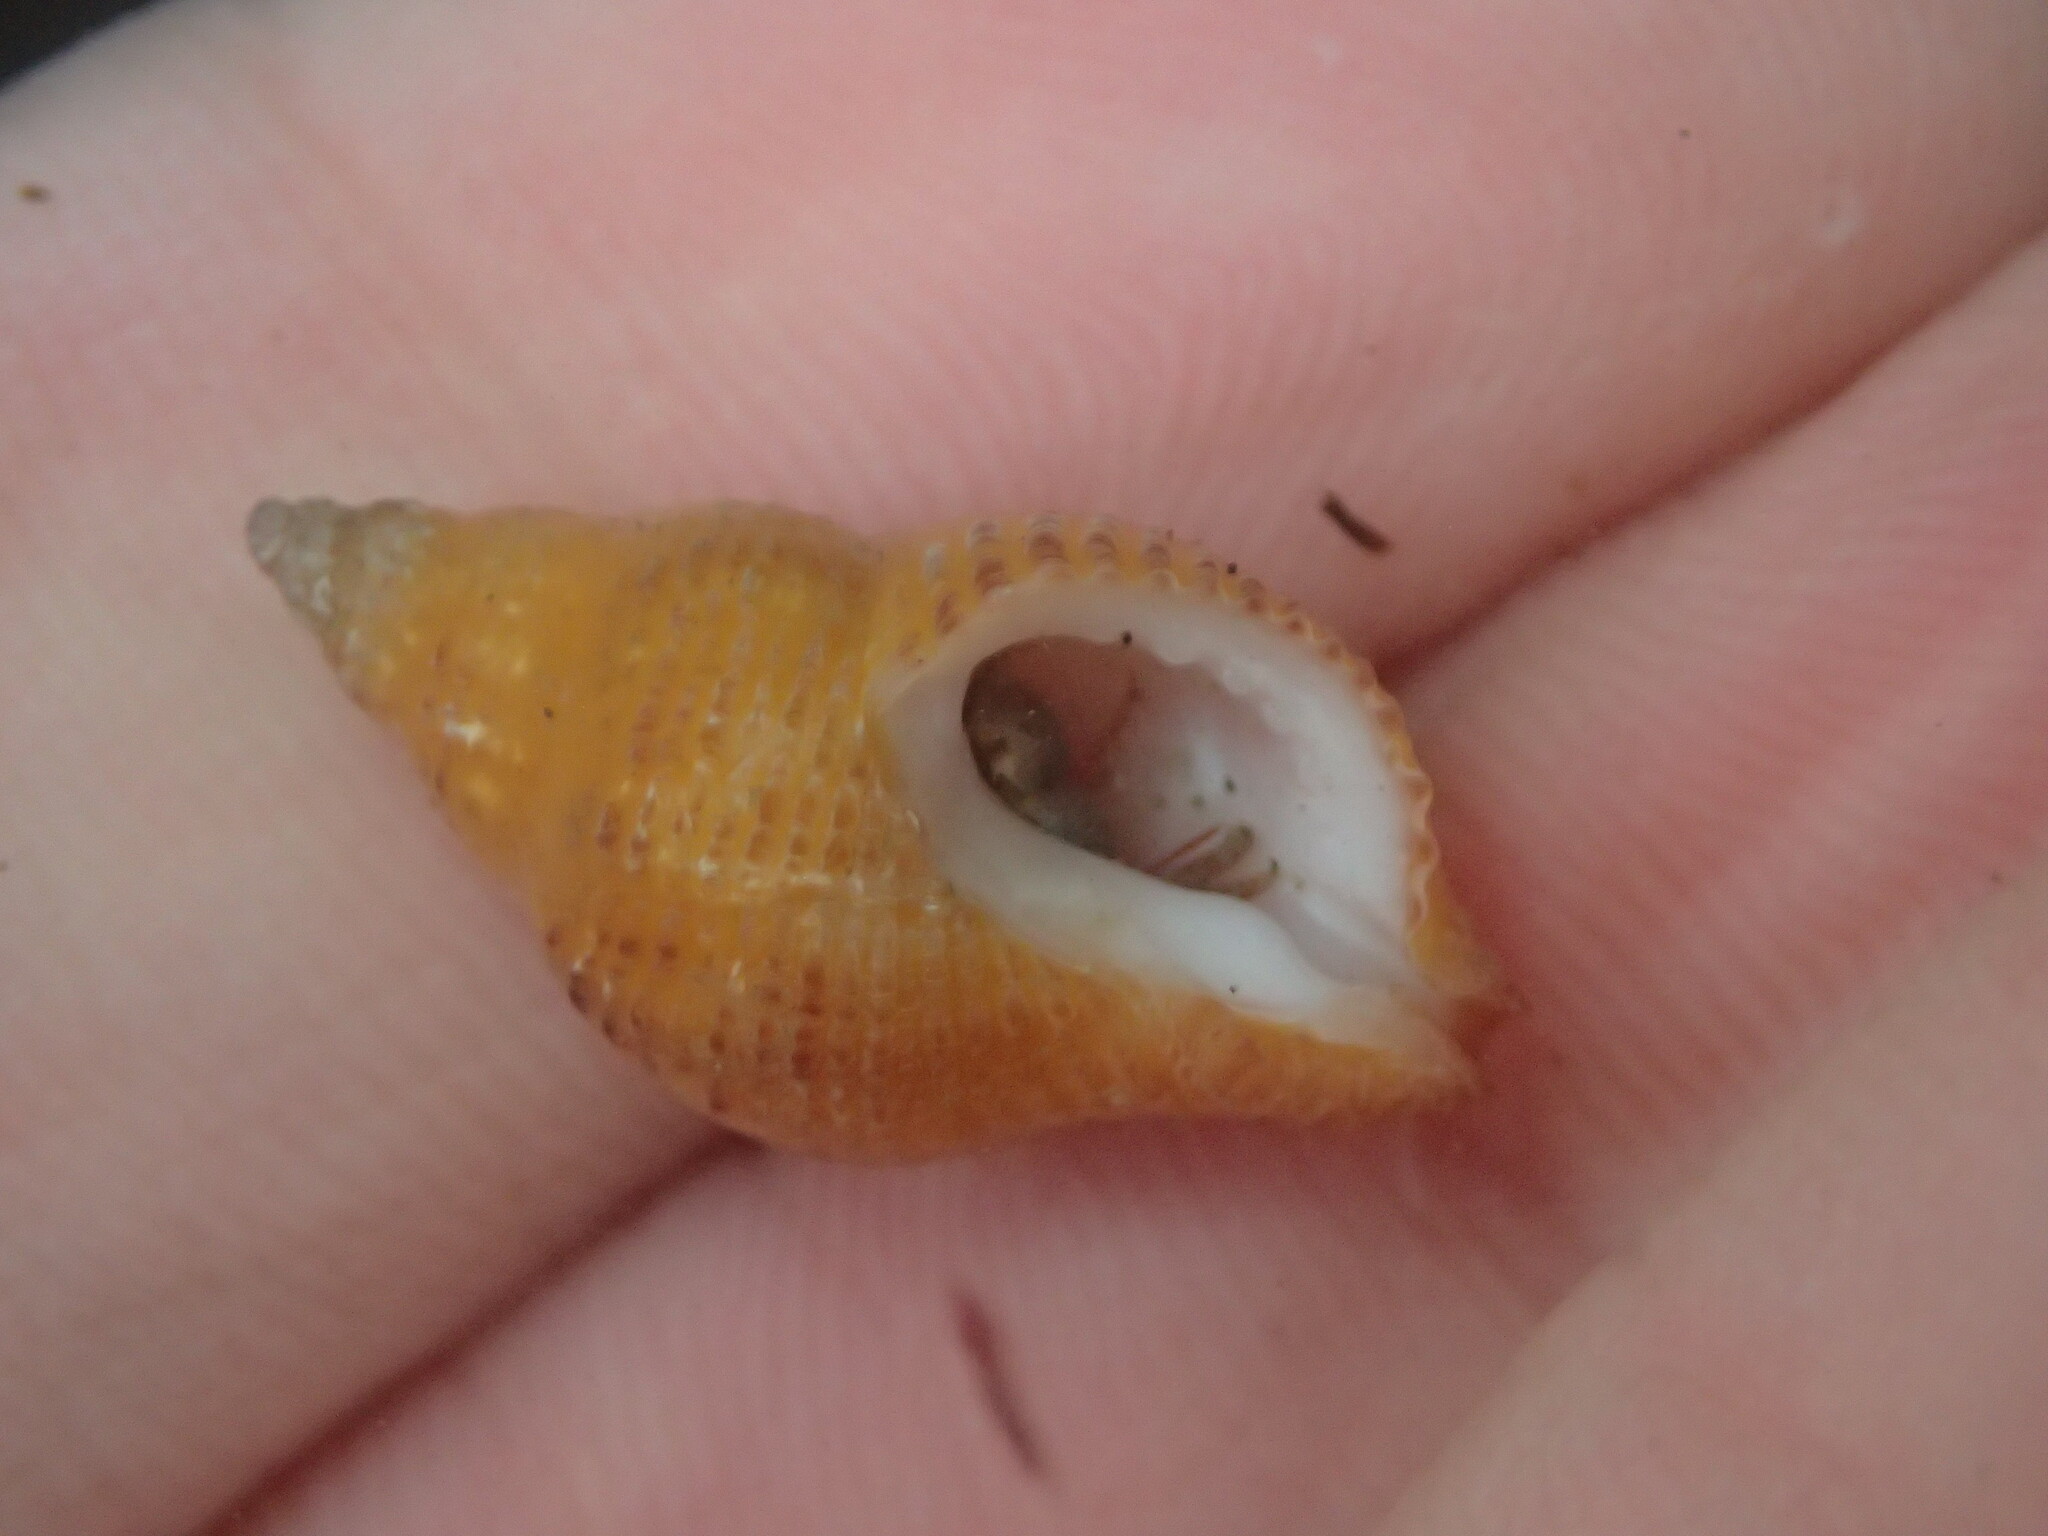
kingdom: Animalia
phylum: Mollusca
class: Gastropoda
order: Neogastropoda
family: Muricidae
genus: Paciocinebrina
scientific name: Paciocinebrina lurida
